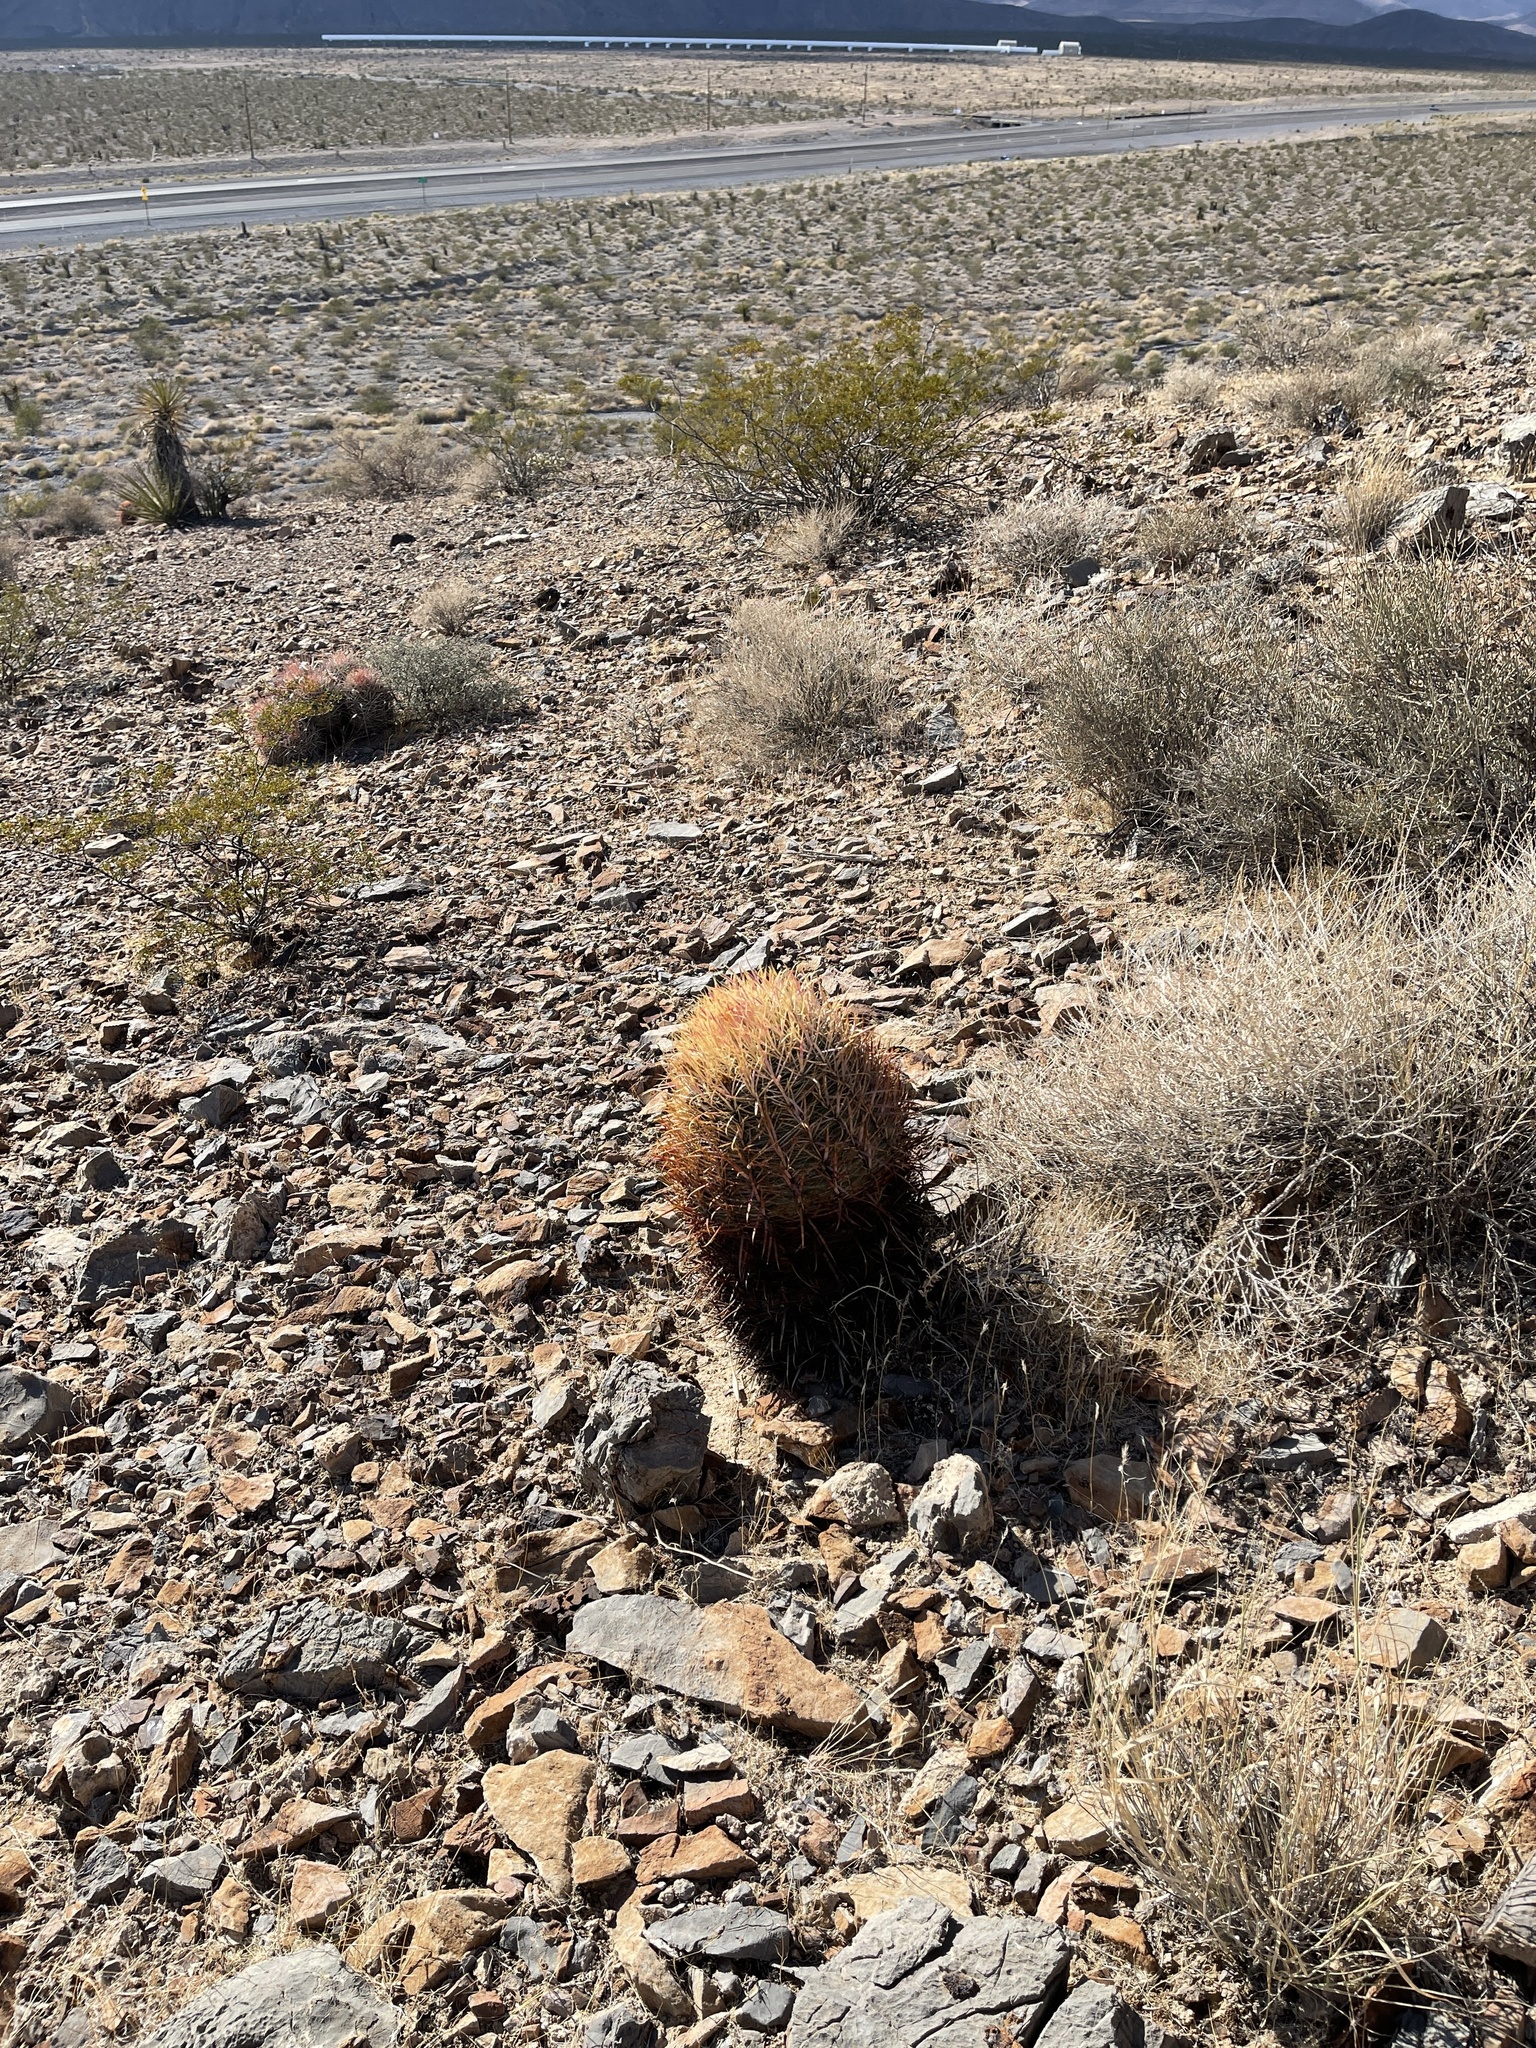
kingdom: Plantae
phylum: Tracheophyta
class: Magnoliopsida
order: Caryophyllales
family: Cactaceae
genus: Ferocactus
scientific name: Ferocactus cylindraceus
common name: California barrel cactus
